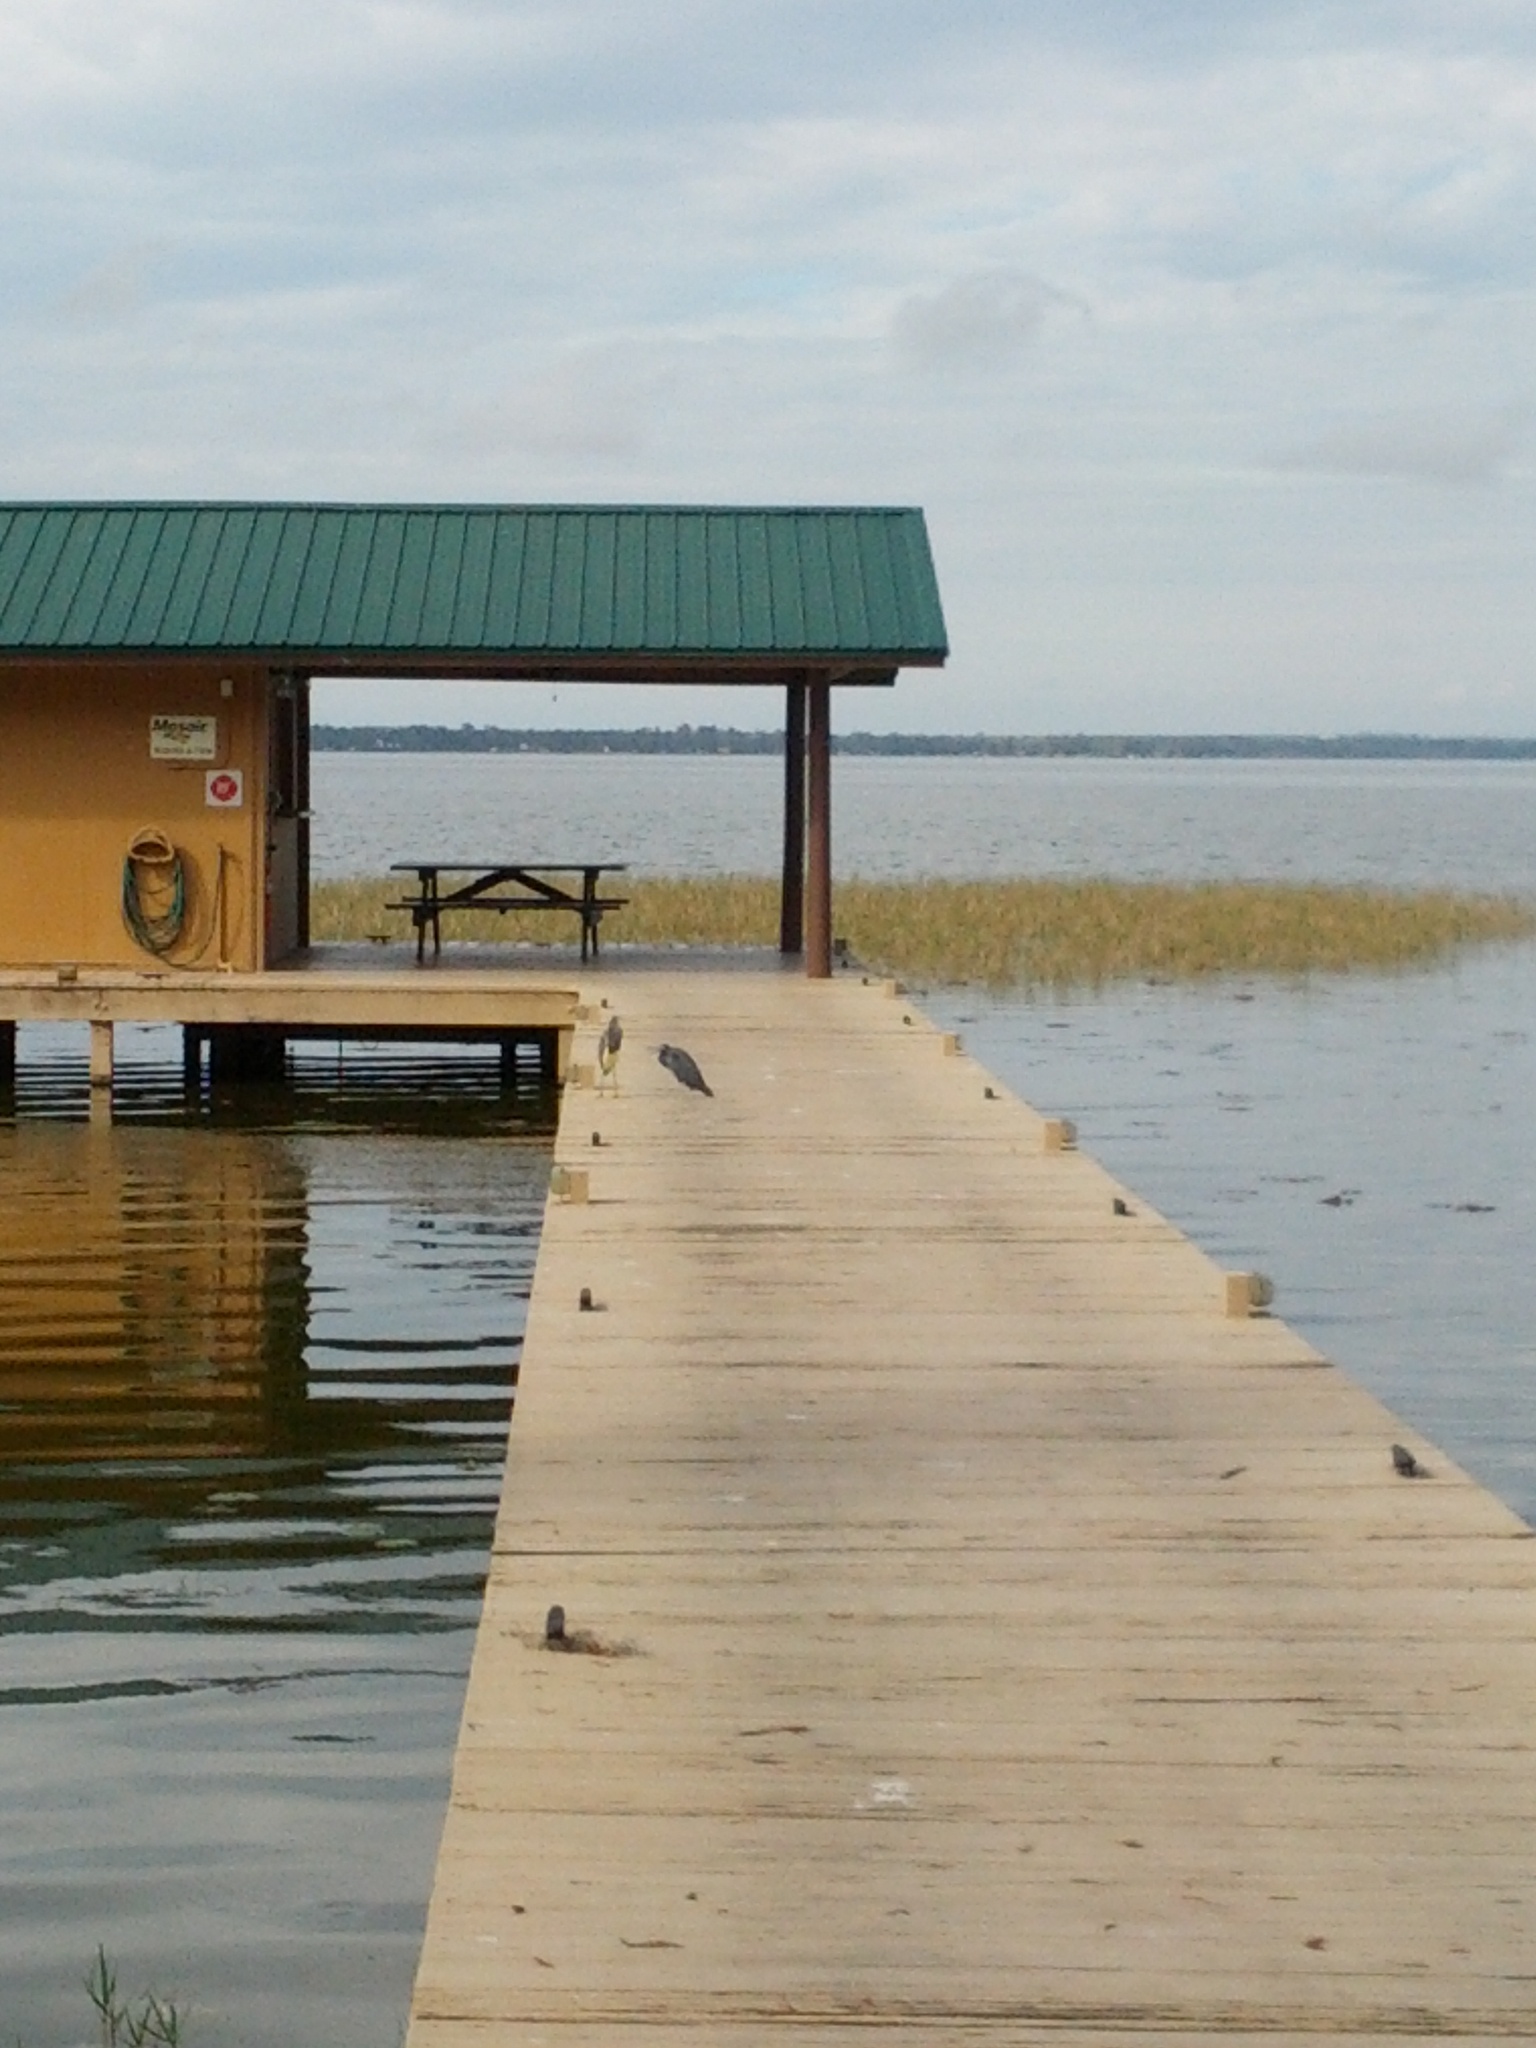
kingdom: Animalia
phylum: Chordata
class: Aves
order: Pelecaniformes
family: Ardeidae
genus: Egretta
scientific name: Egretta tricolor
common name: Tricolored heron
